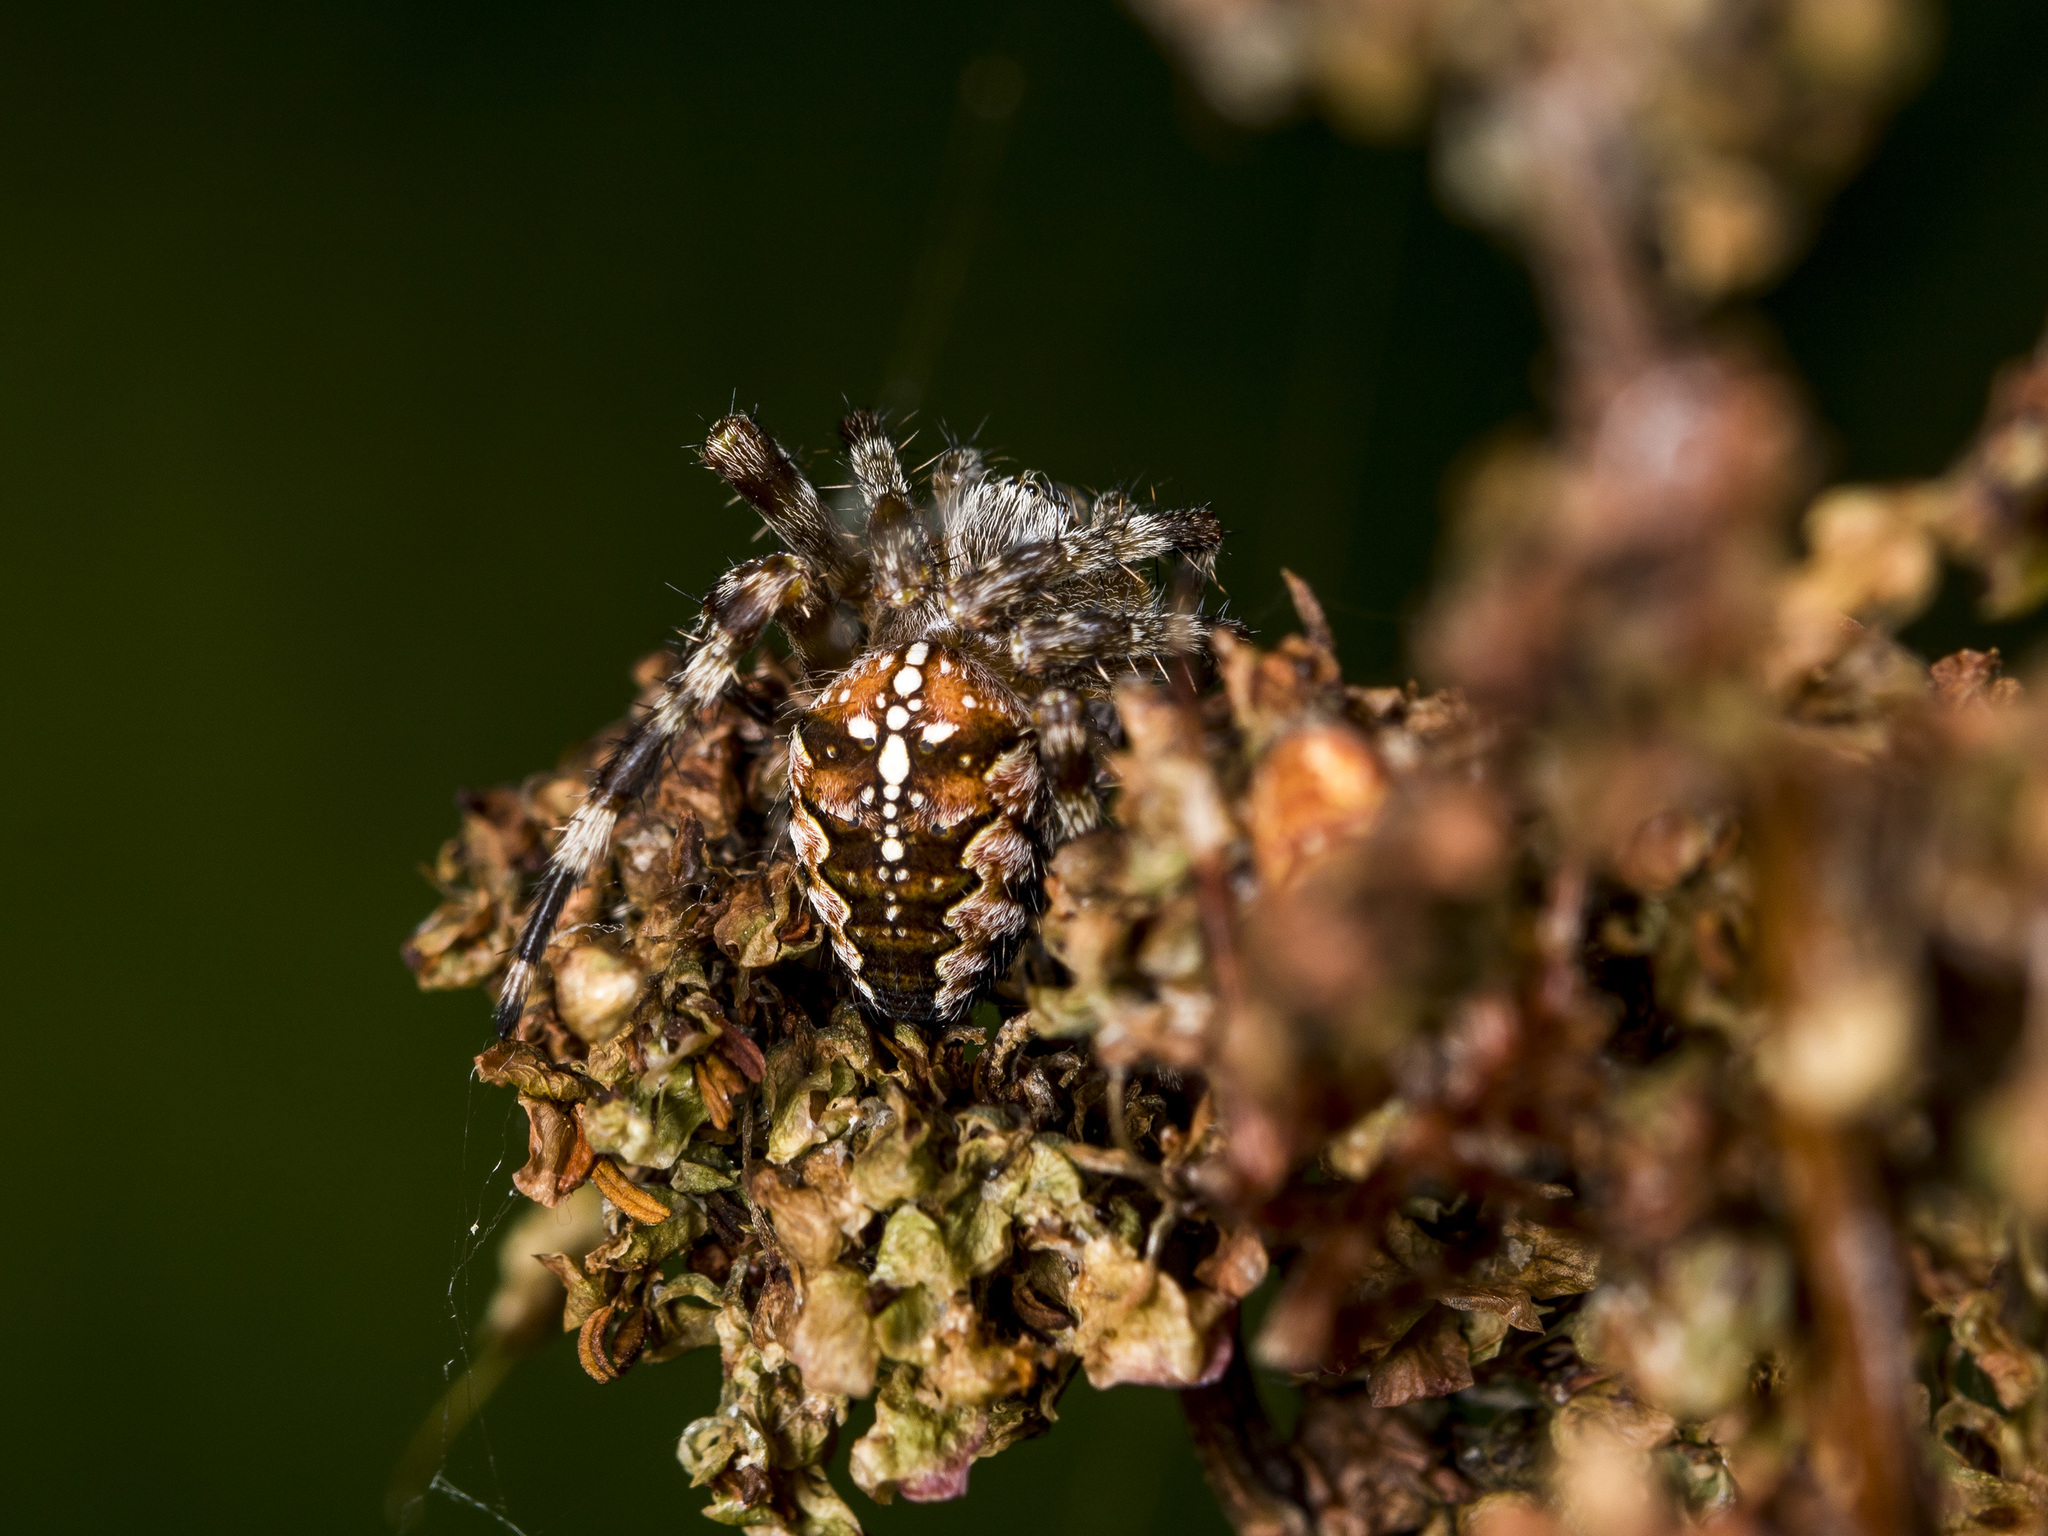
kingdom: Animalia
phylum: Arthropoda
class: Arachnida
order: Araneae
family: Araneidae
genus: Araneus
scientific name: Araneus diadematus
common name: Cross orbweaver
